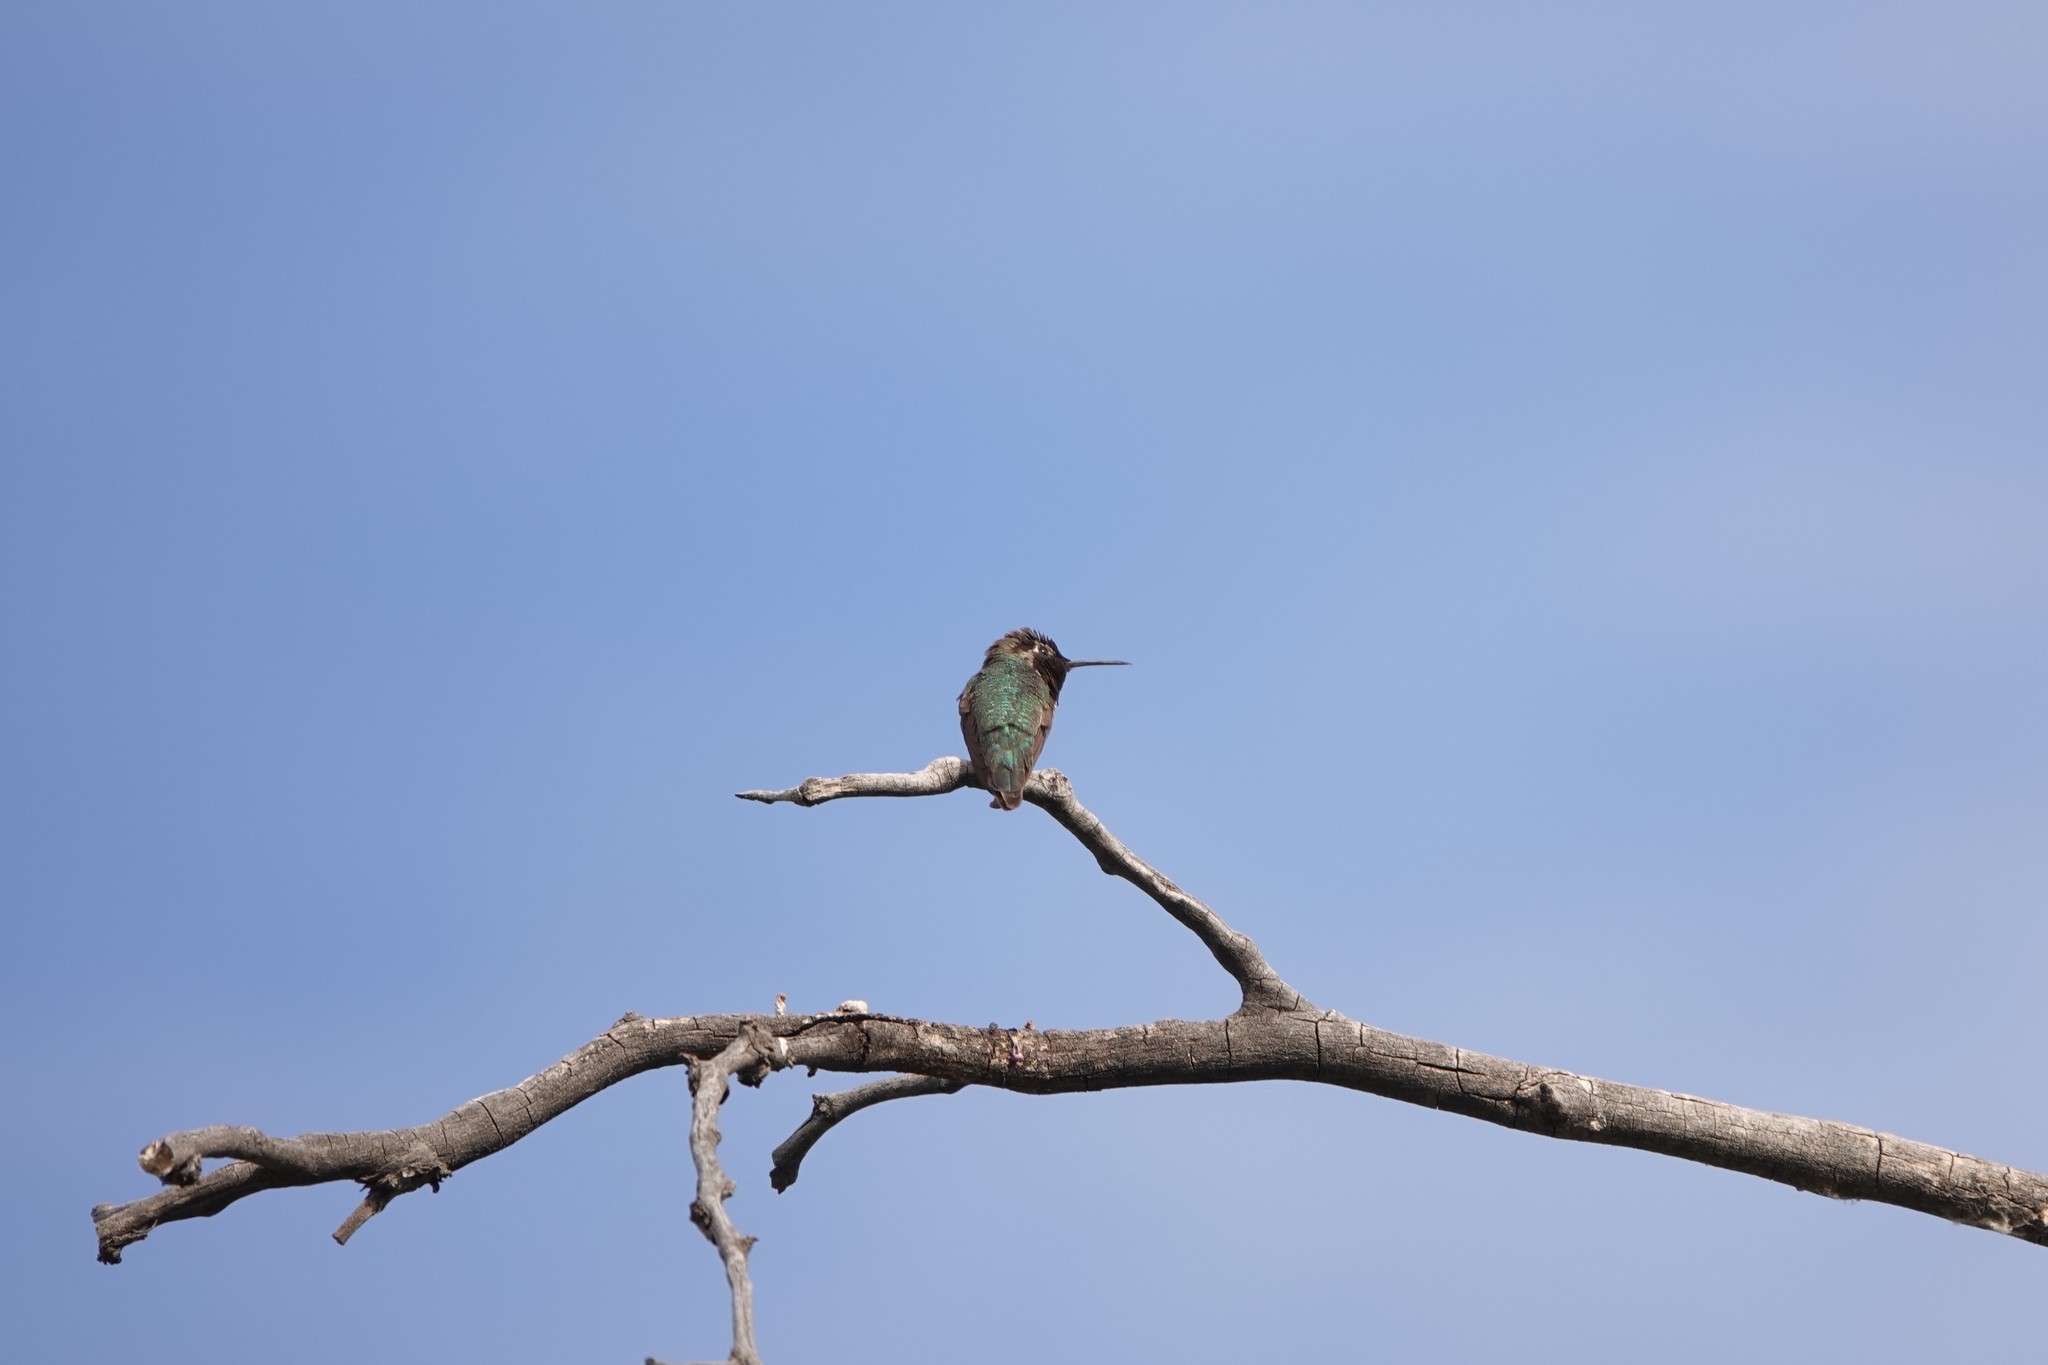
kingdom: Animalia
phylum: Chordata
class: Aves
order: Apodiformes
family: Trochilidae
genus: Calypte
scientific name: Calypte anna
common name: Anna's hummingbird
